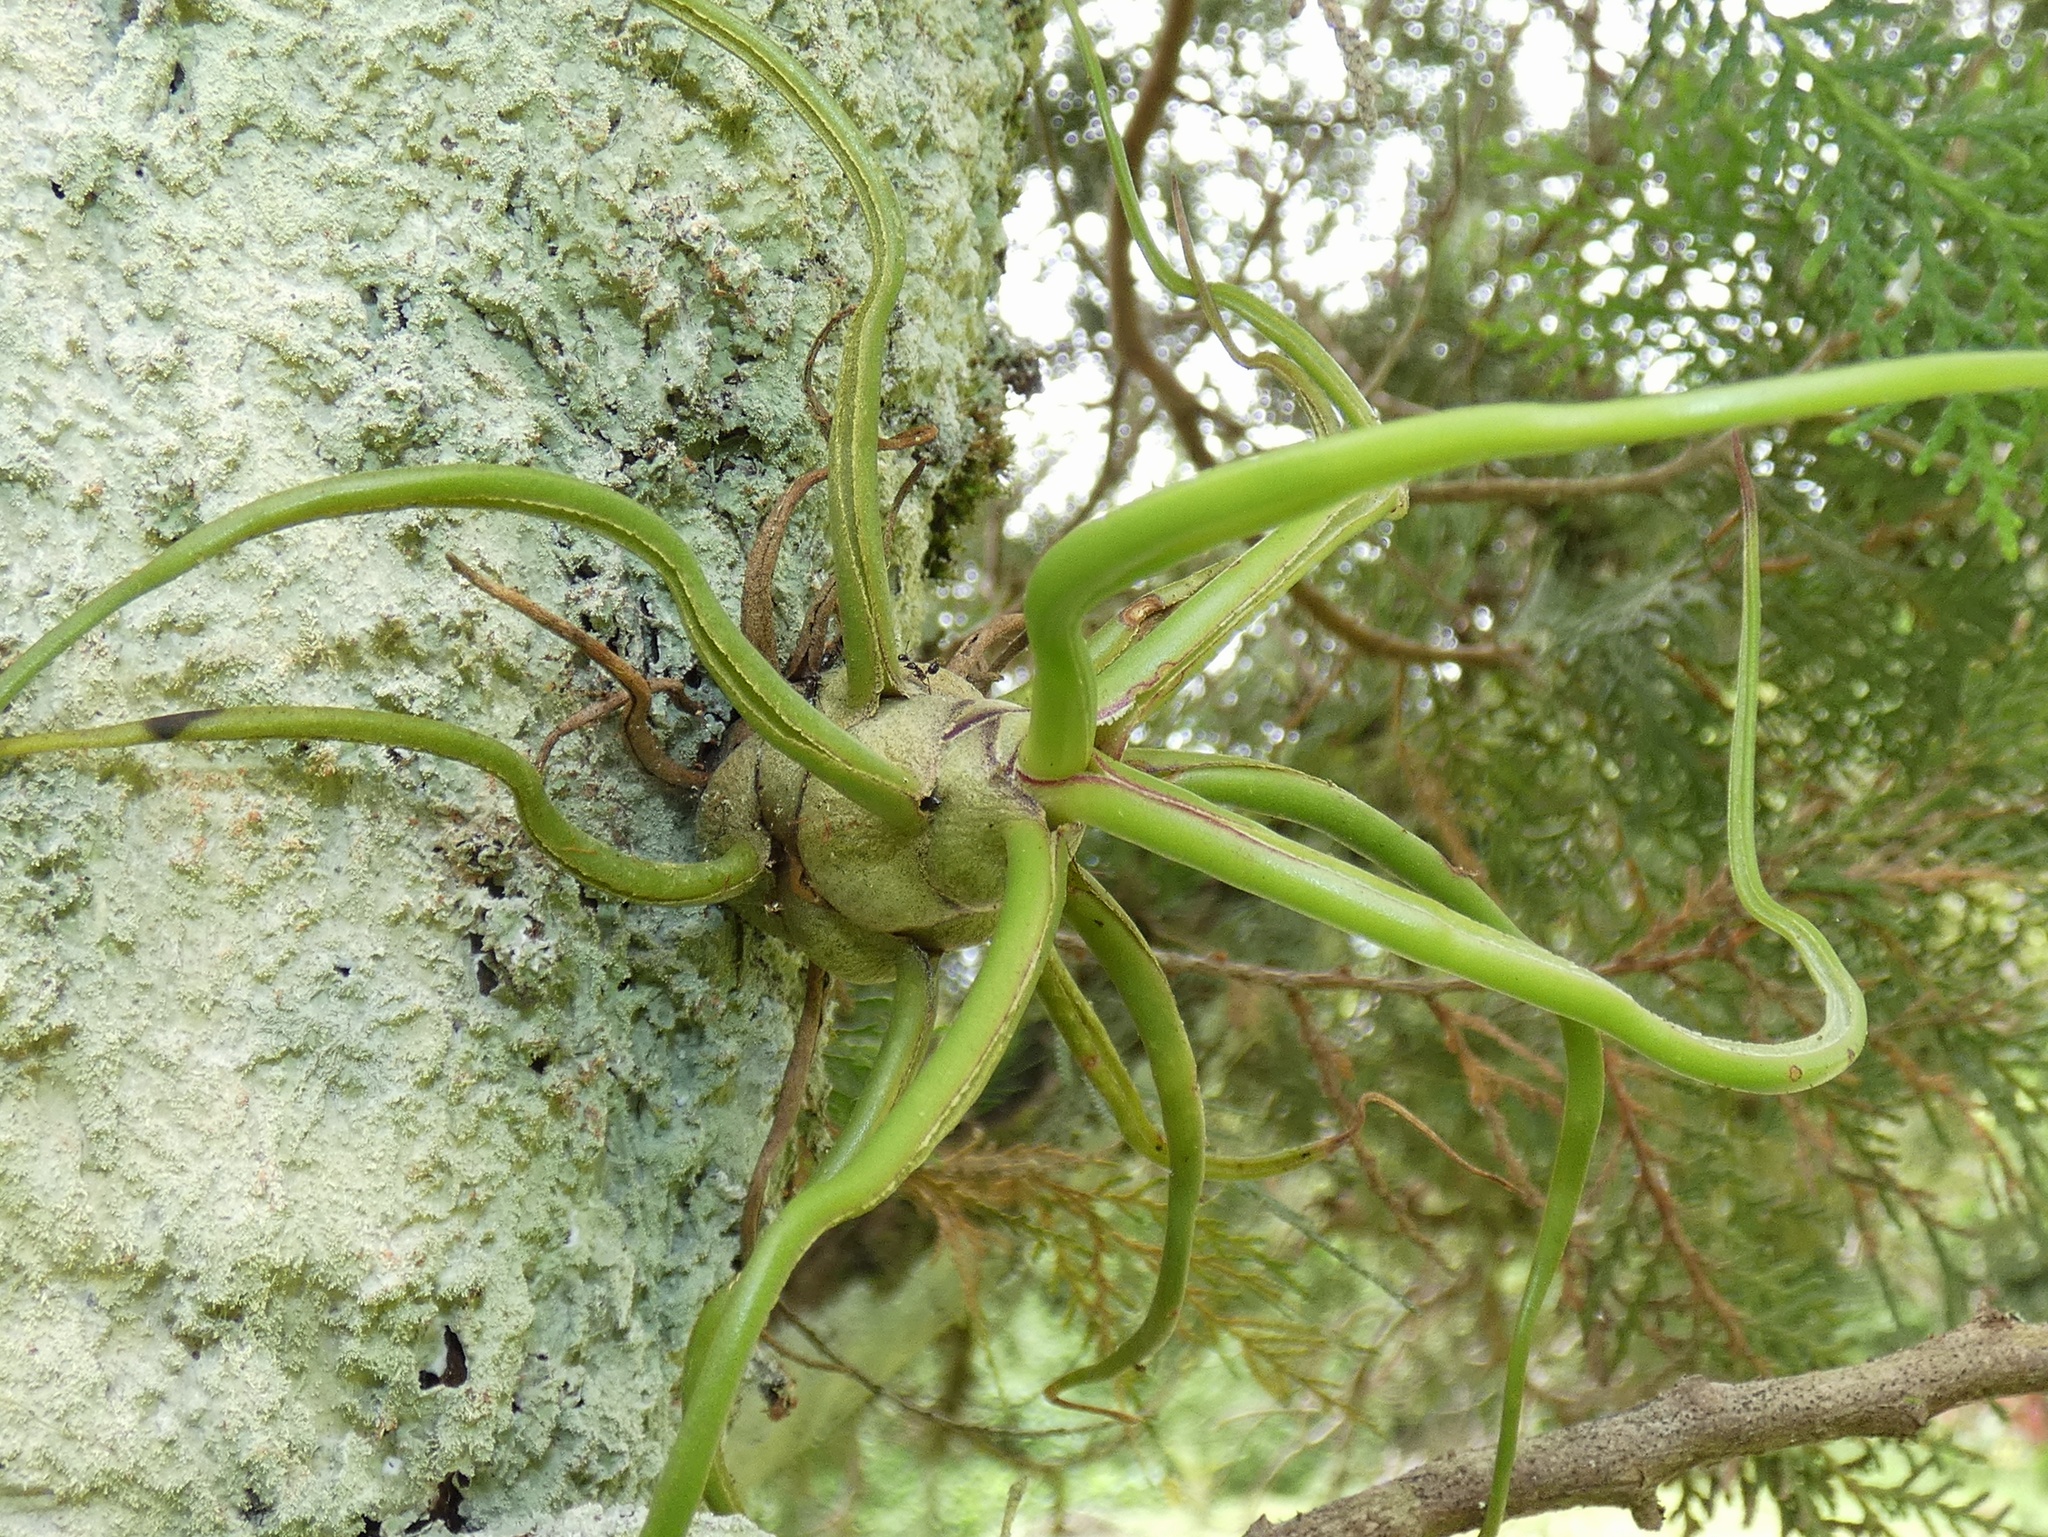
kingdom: Plantae
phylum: Tracheophyta
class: Liliopsida
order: Poales
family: Bromeliaceae
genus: Tillandsia
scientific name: Tillandsia bulbosa
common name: Bulbous airplant
